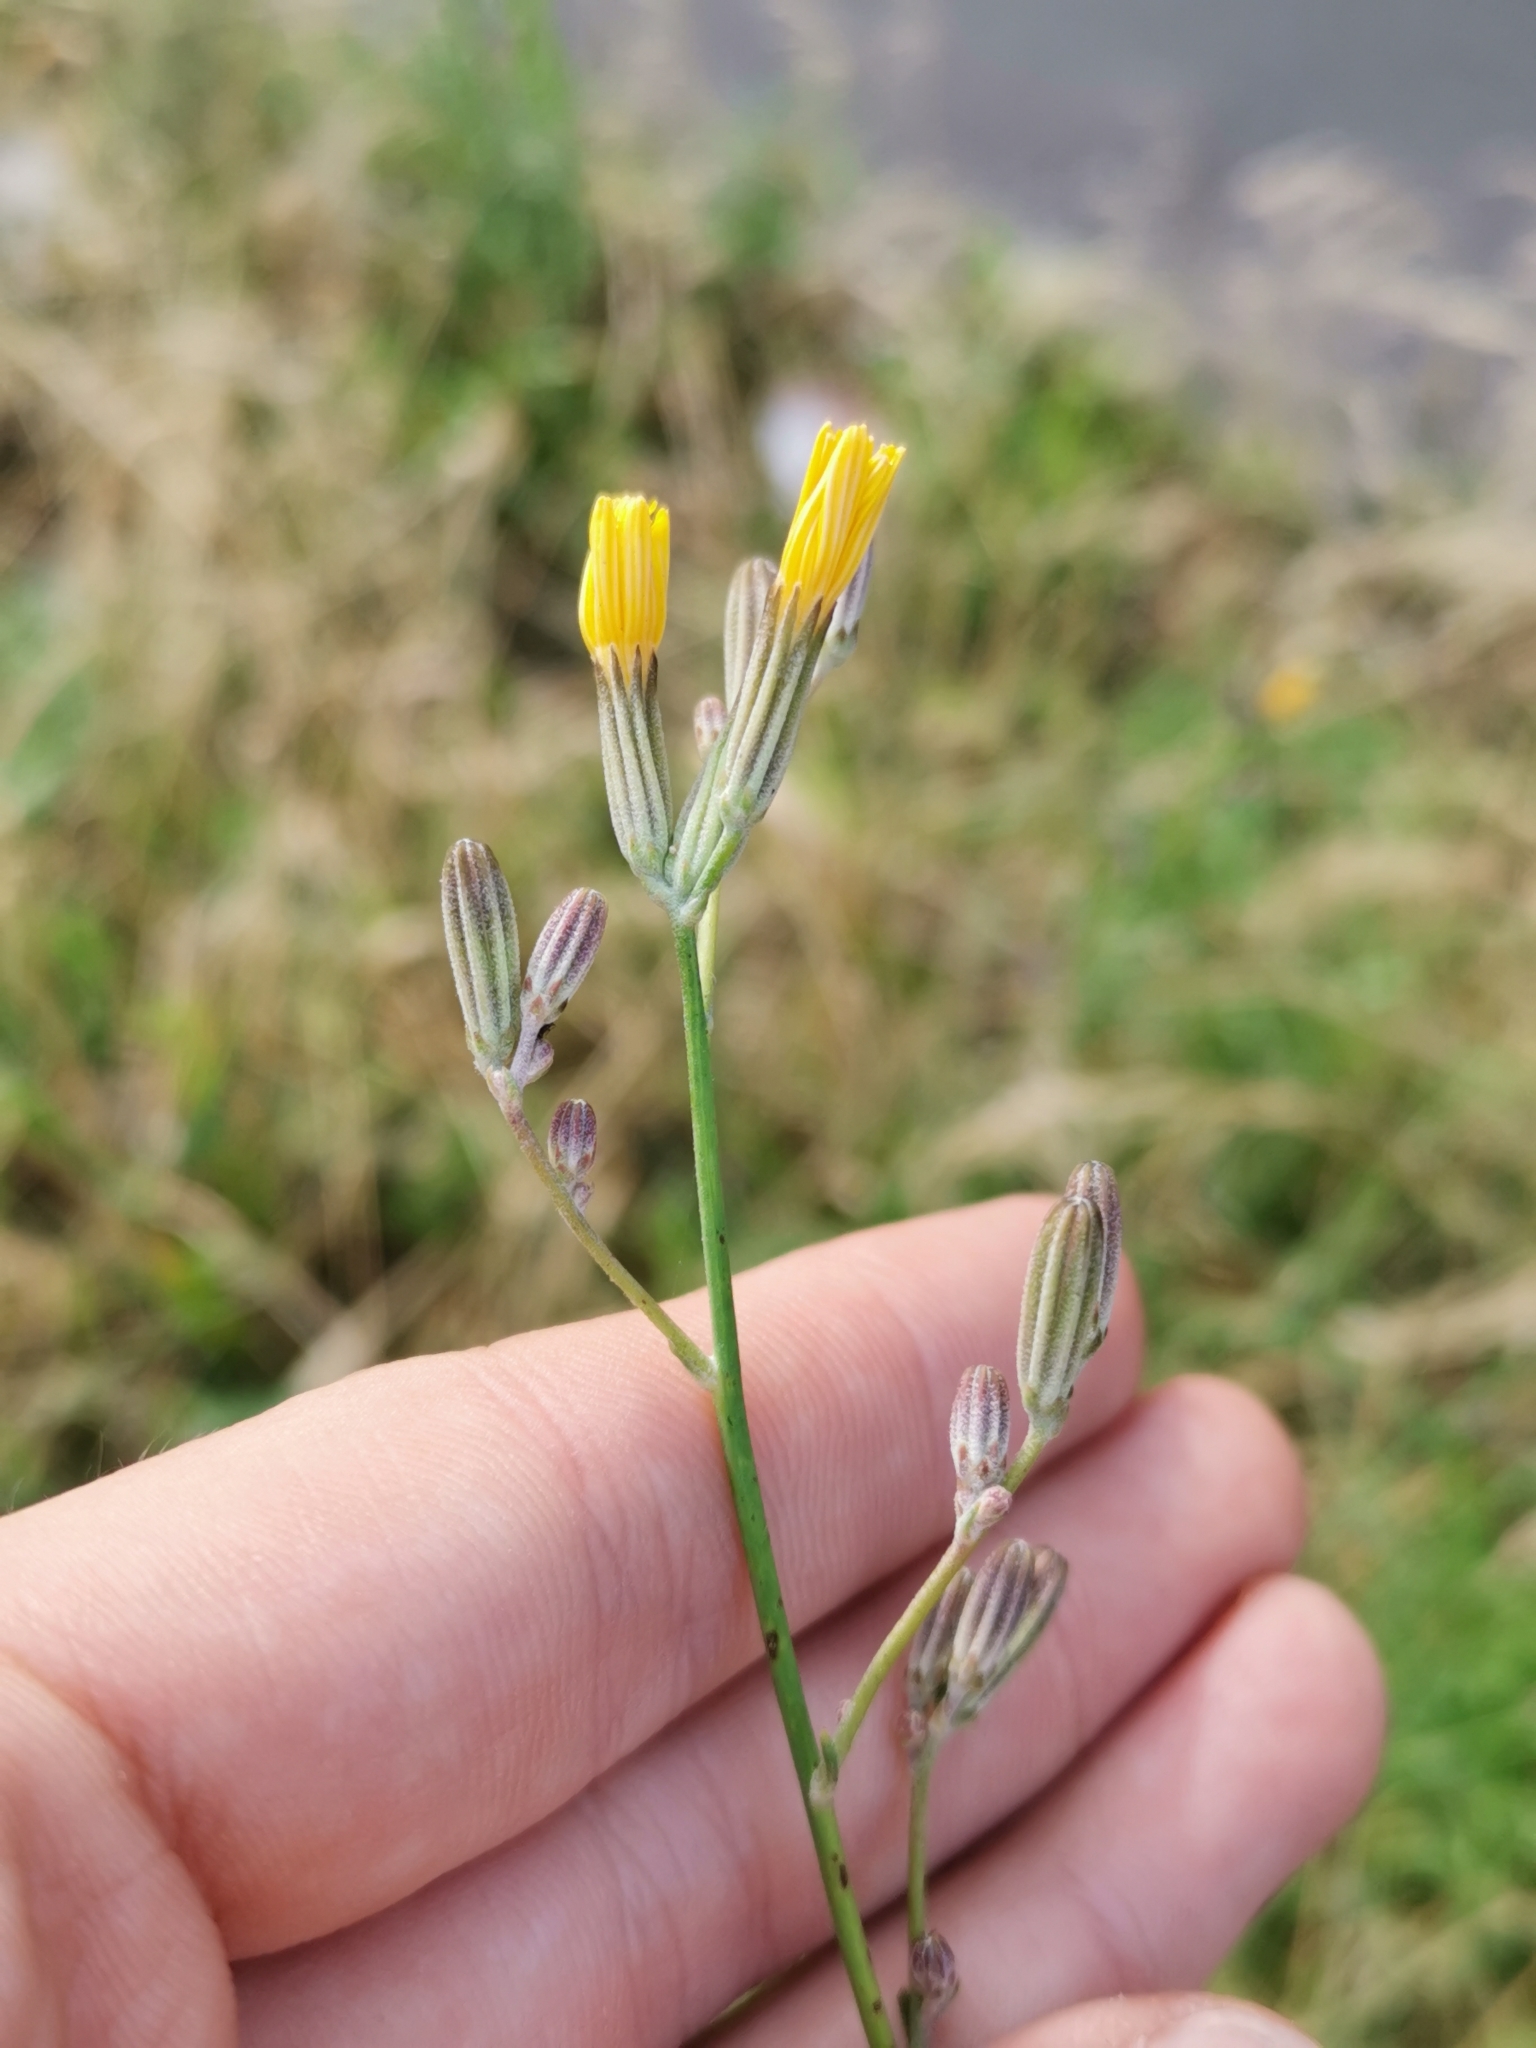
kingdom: Plantae
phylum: Tracheophyta
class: Magnoliopsida
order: Asterales
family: Asteraceae
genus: Chondrilla
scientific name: Chondrilla juncea
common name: Skeleton weed
